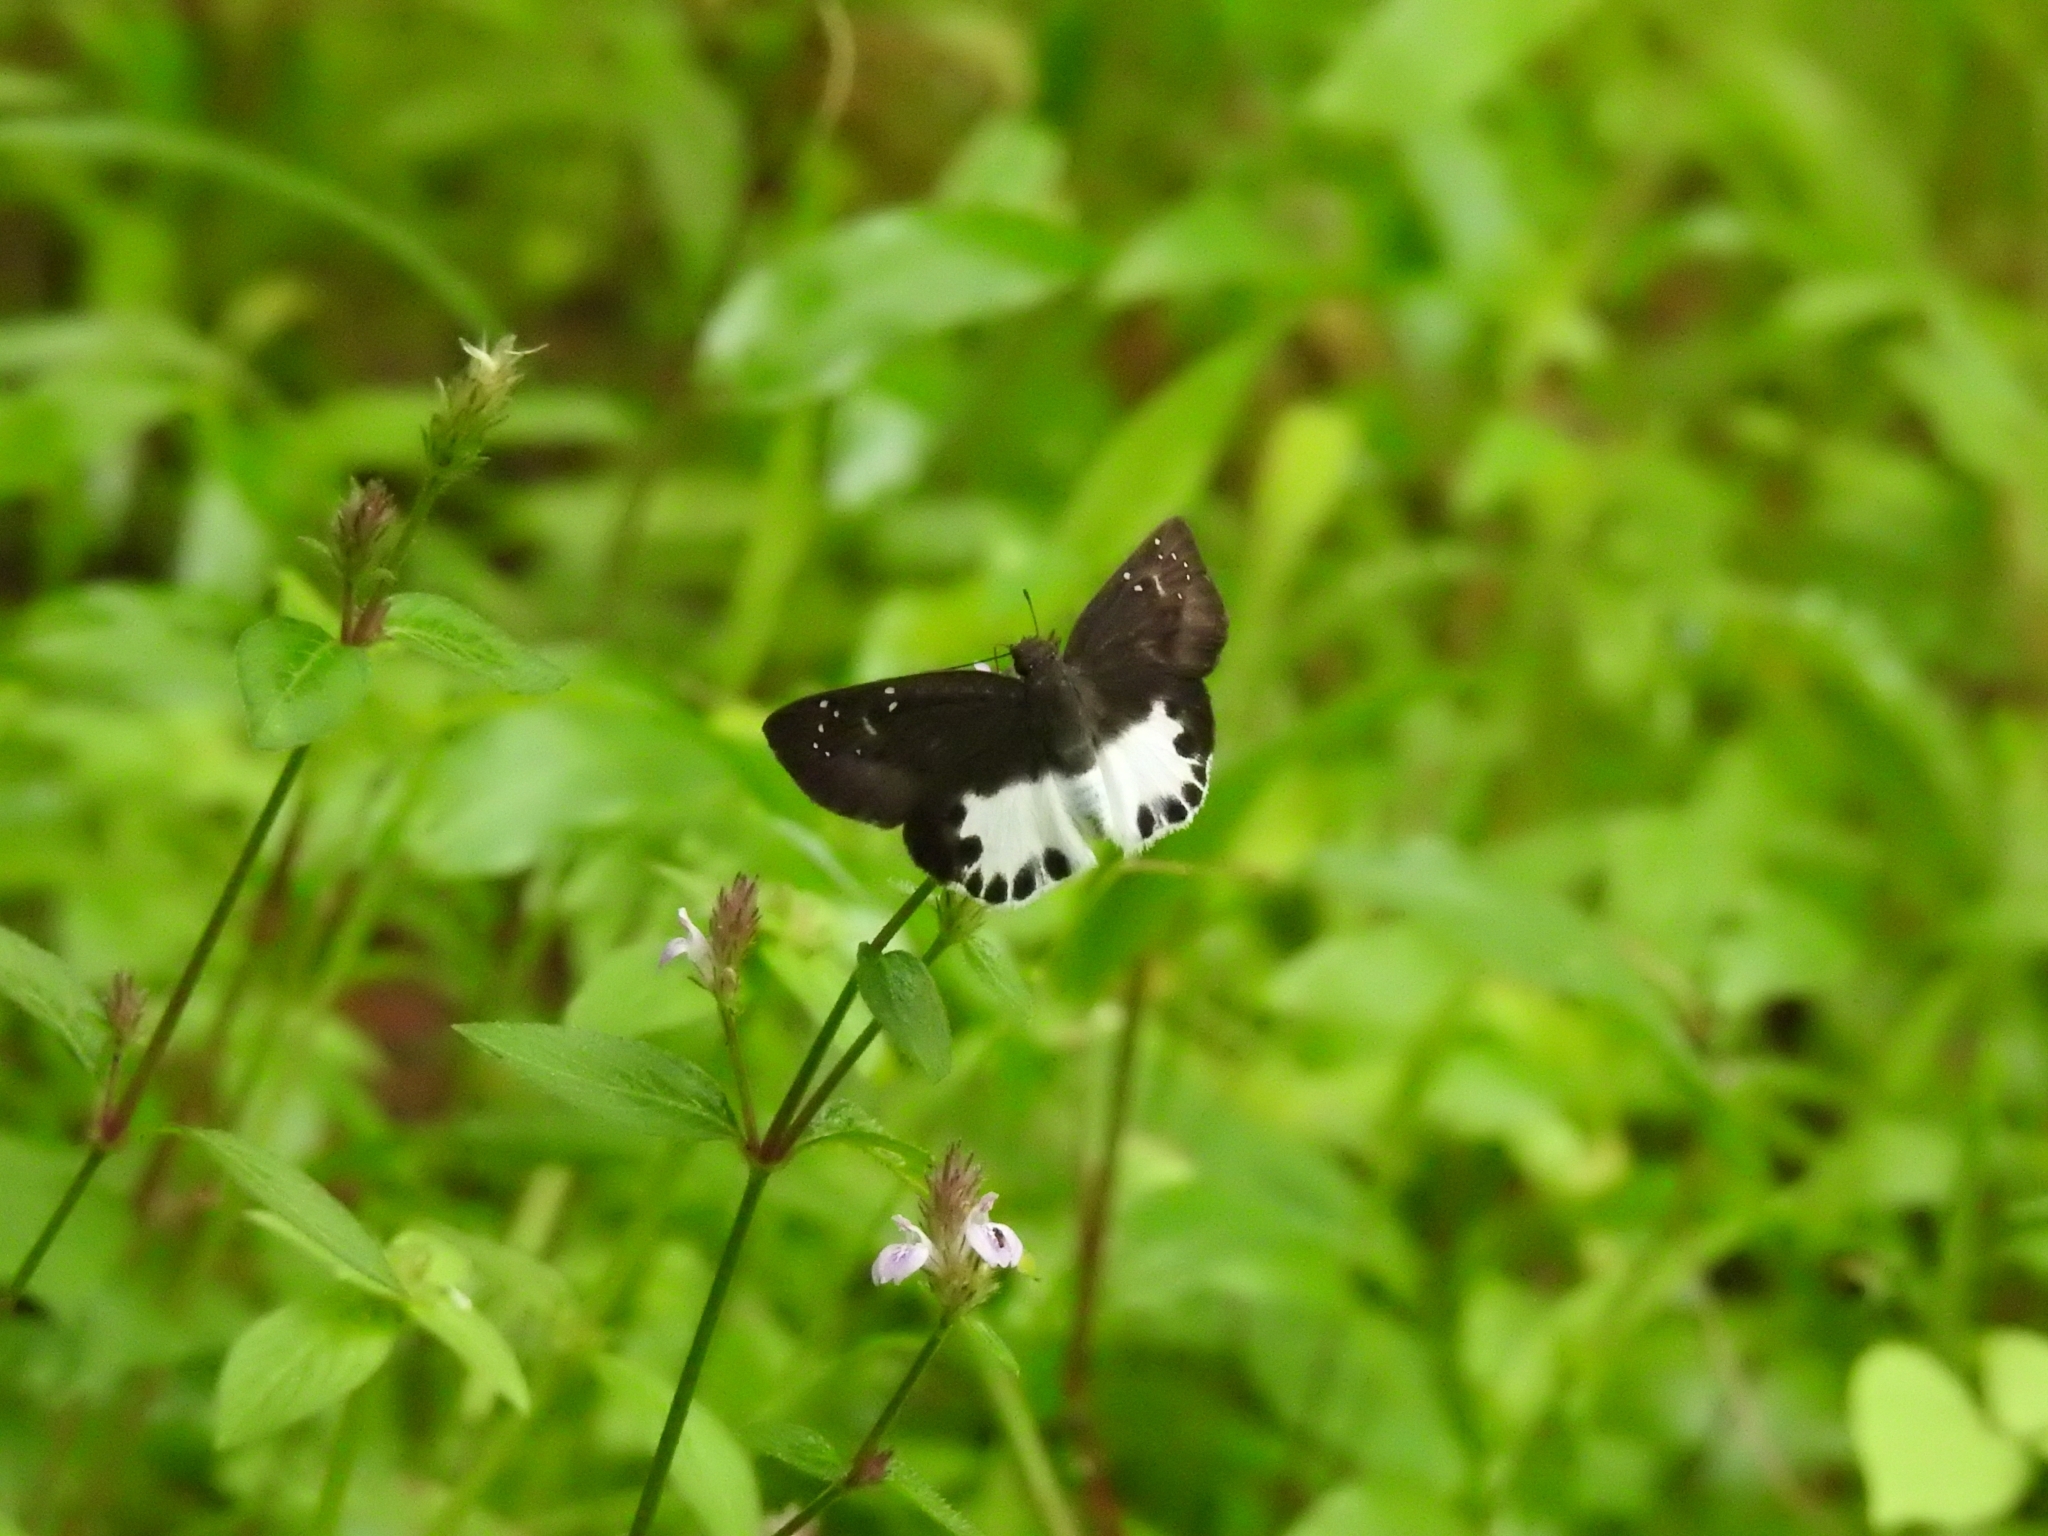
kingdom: Animalia
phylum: Arthropoda
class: Insecta
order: Lepidoptera
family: Hesperiidae
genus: Tagiades
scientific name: Tagiades litigiosa
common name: Water snow flat
